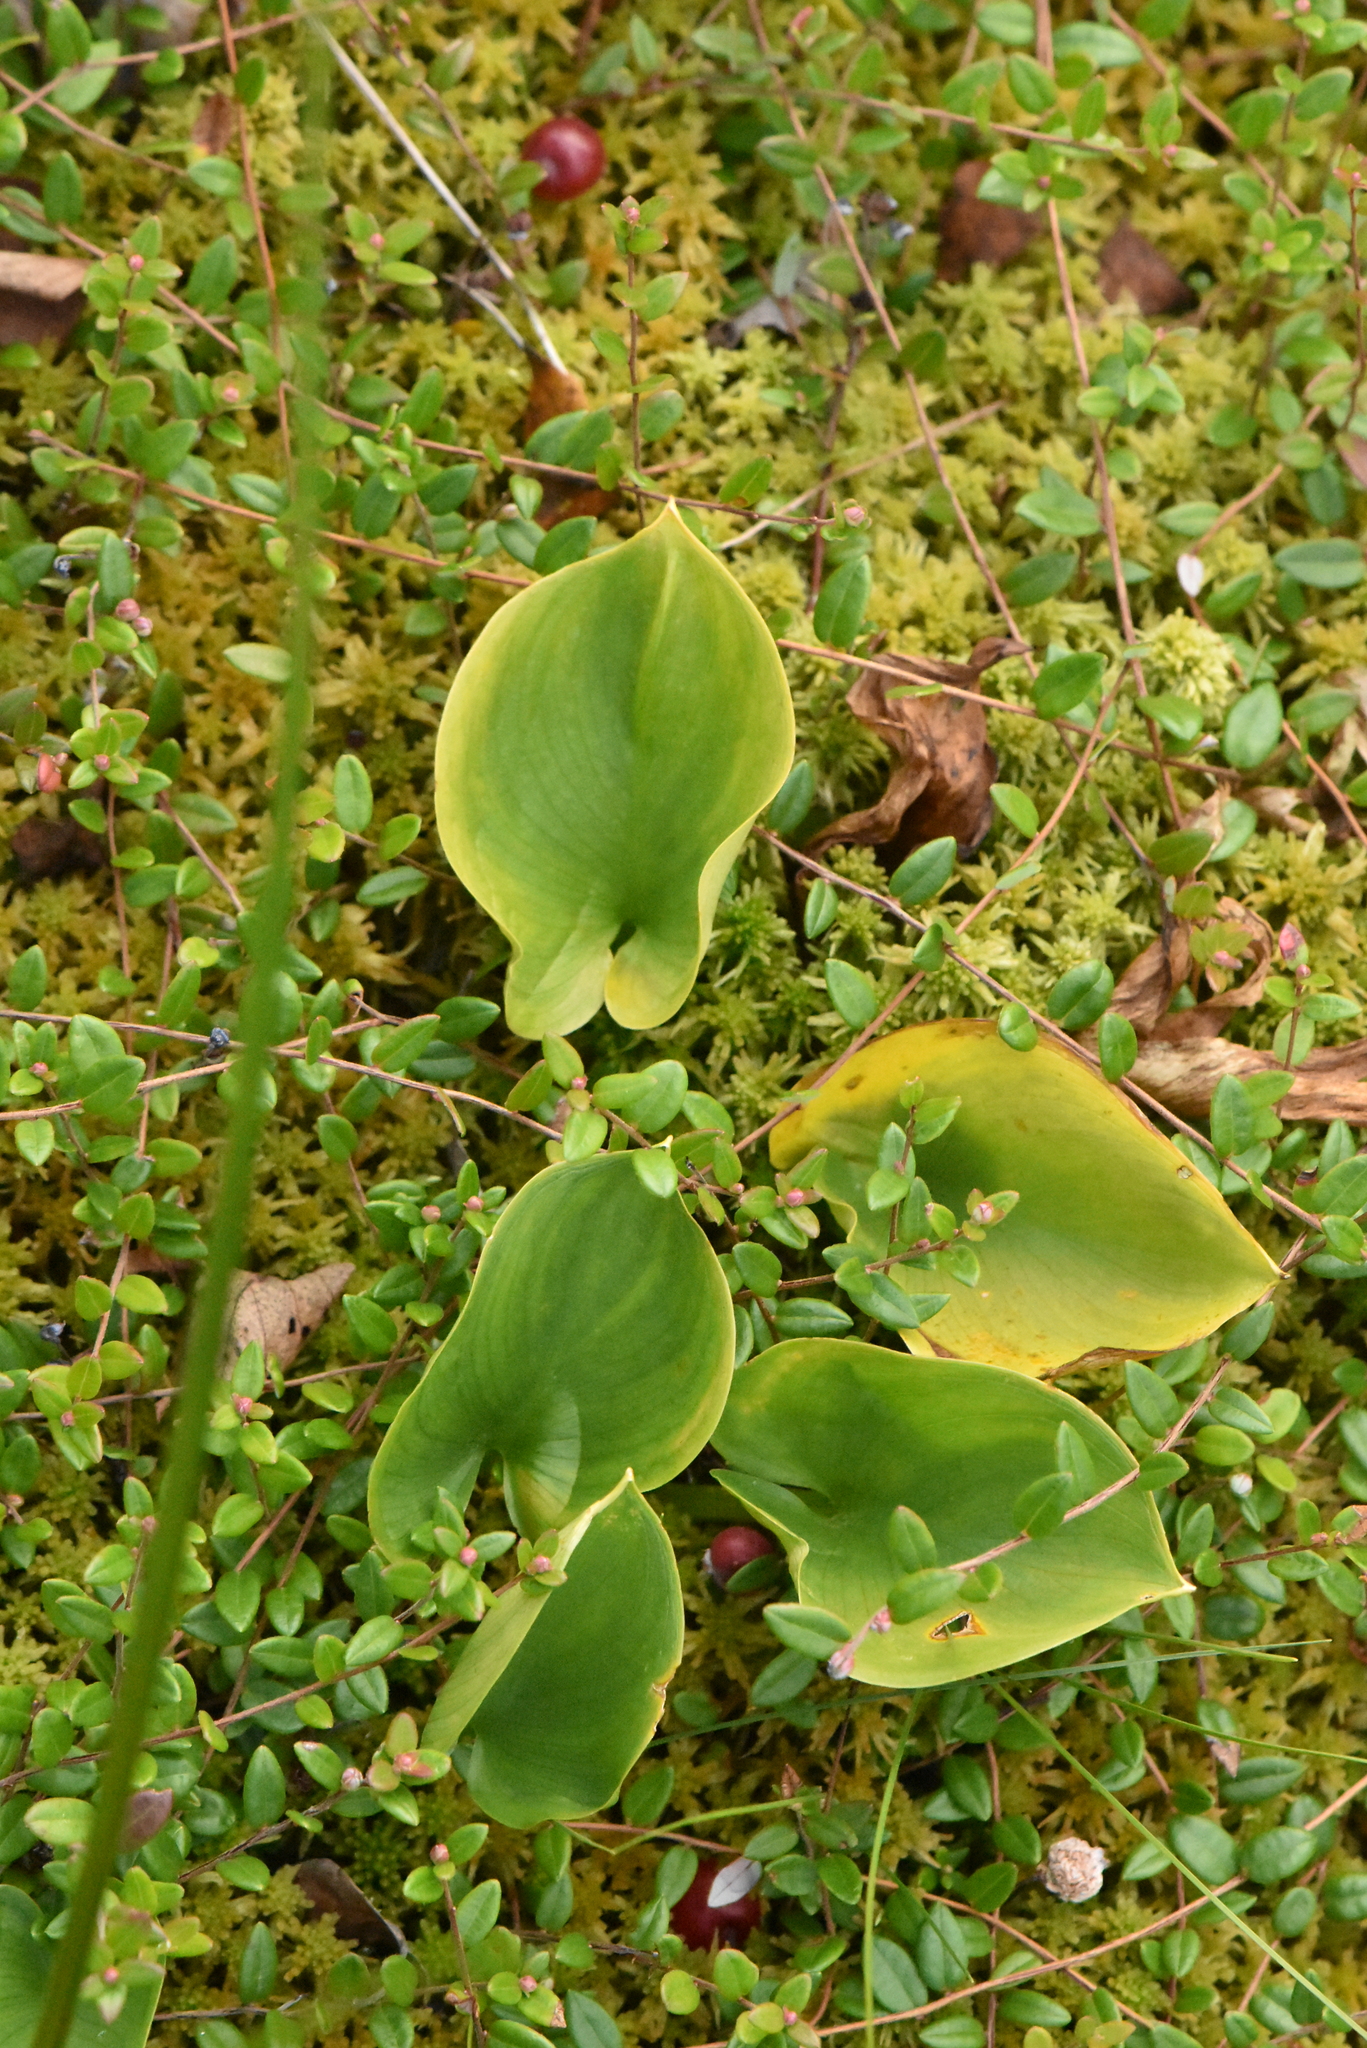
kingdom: Plantae
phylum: Tracheophyta
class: Liliopsida
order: Alismatales
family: Araceae
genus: Calla
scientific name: Calla palustris
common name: Bog arum
